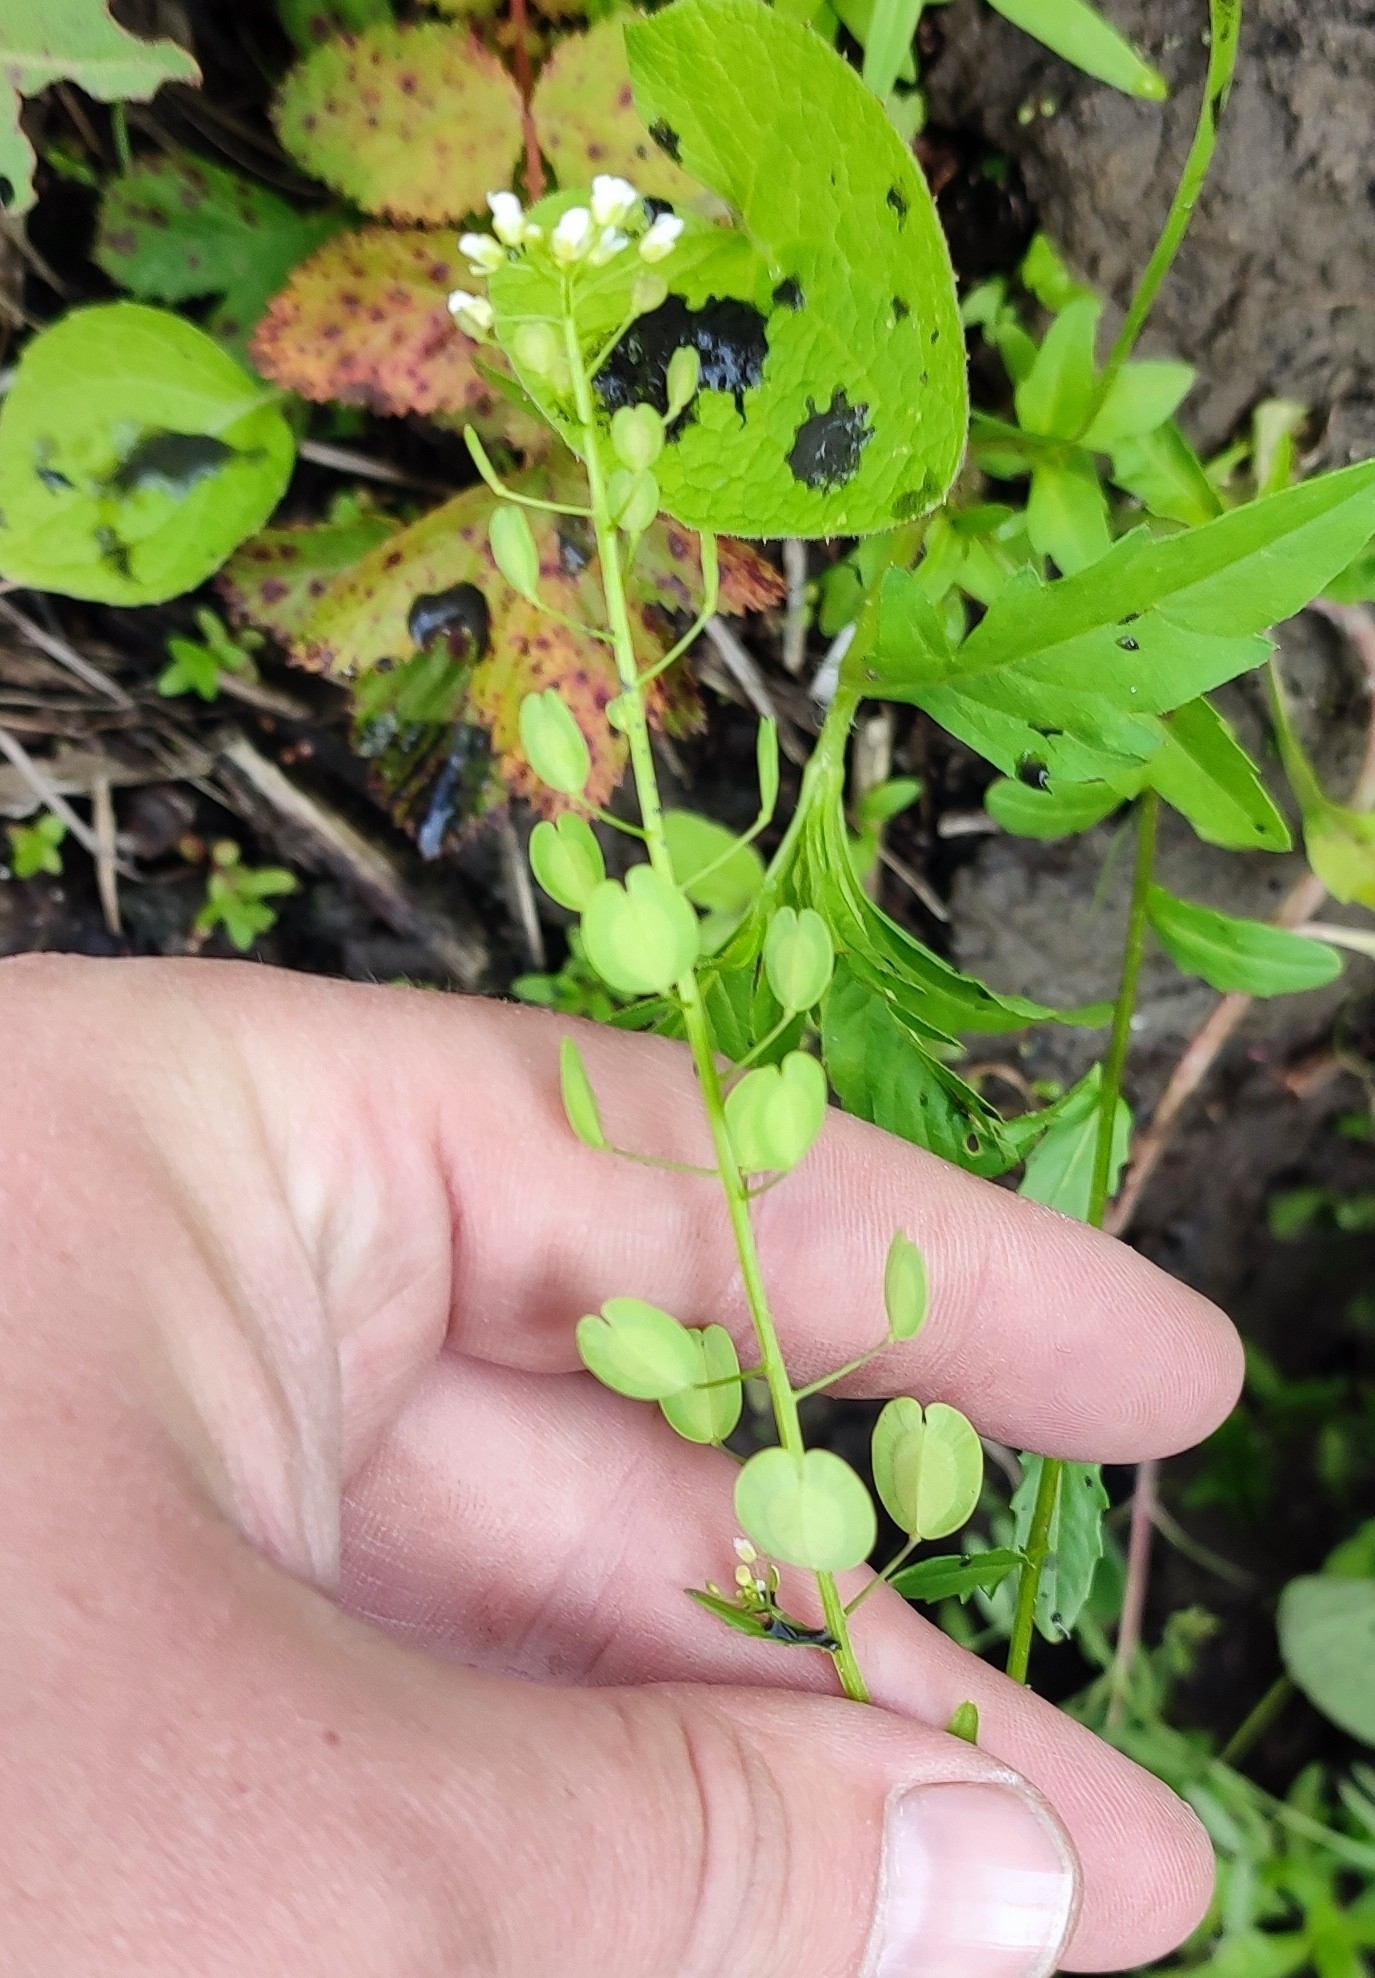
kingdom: Plantae
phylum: Tracheophyta
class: Magnoliopsida
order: Brassicales
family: Brassicaceae
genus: Thlaspi
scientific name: Thlaspi arvense
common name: Field pennycress
